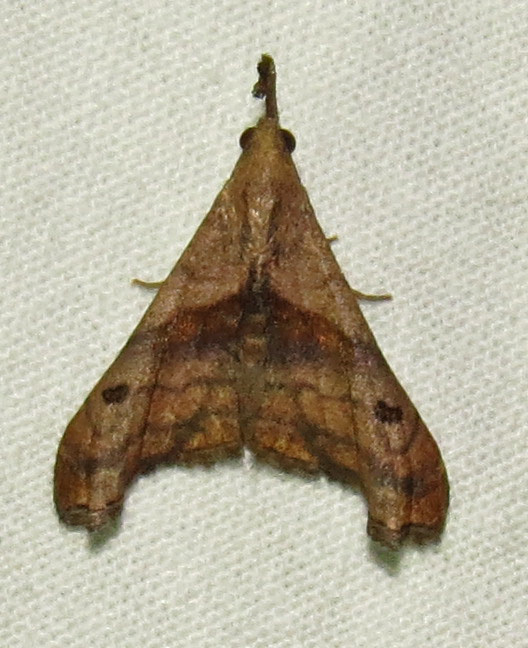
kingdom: Animalia
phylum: Arthropoda
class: Insecta
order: Lepidoptera
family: Erebidae
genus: Palthis
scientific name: Palthis angulalis
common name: Dark-spotted palthis moth
